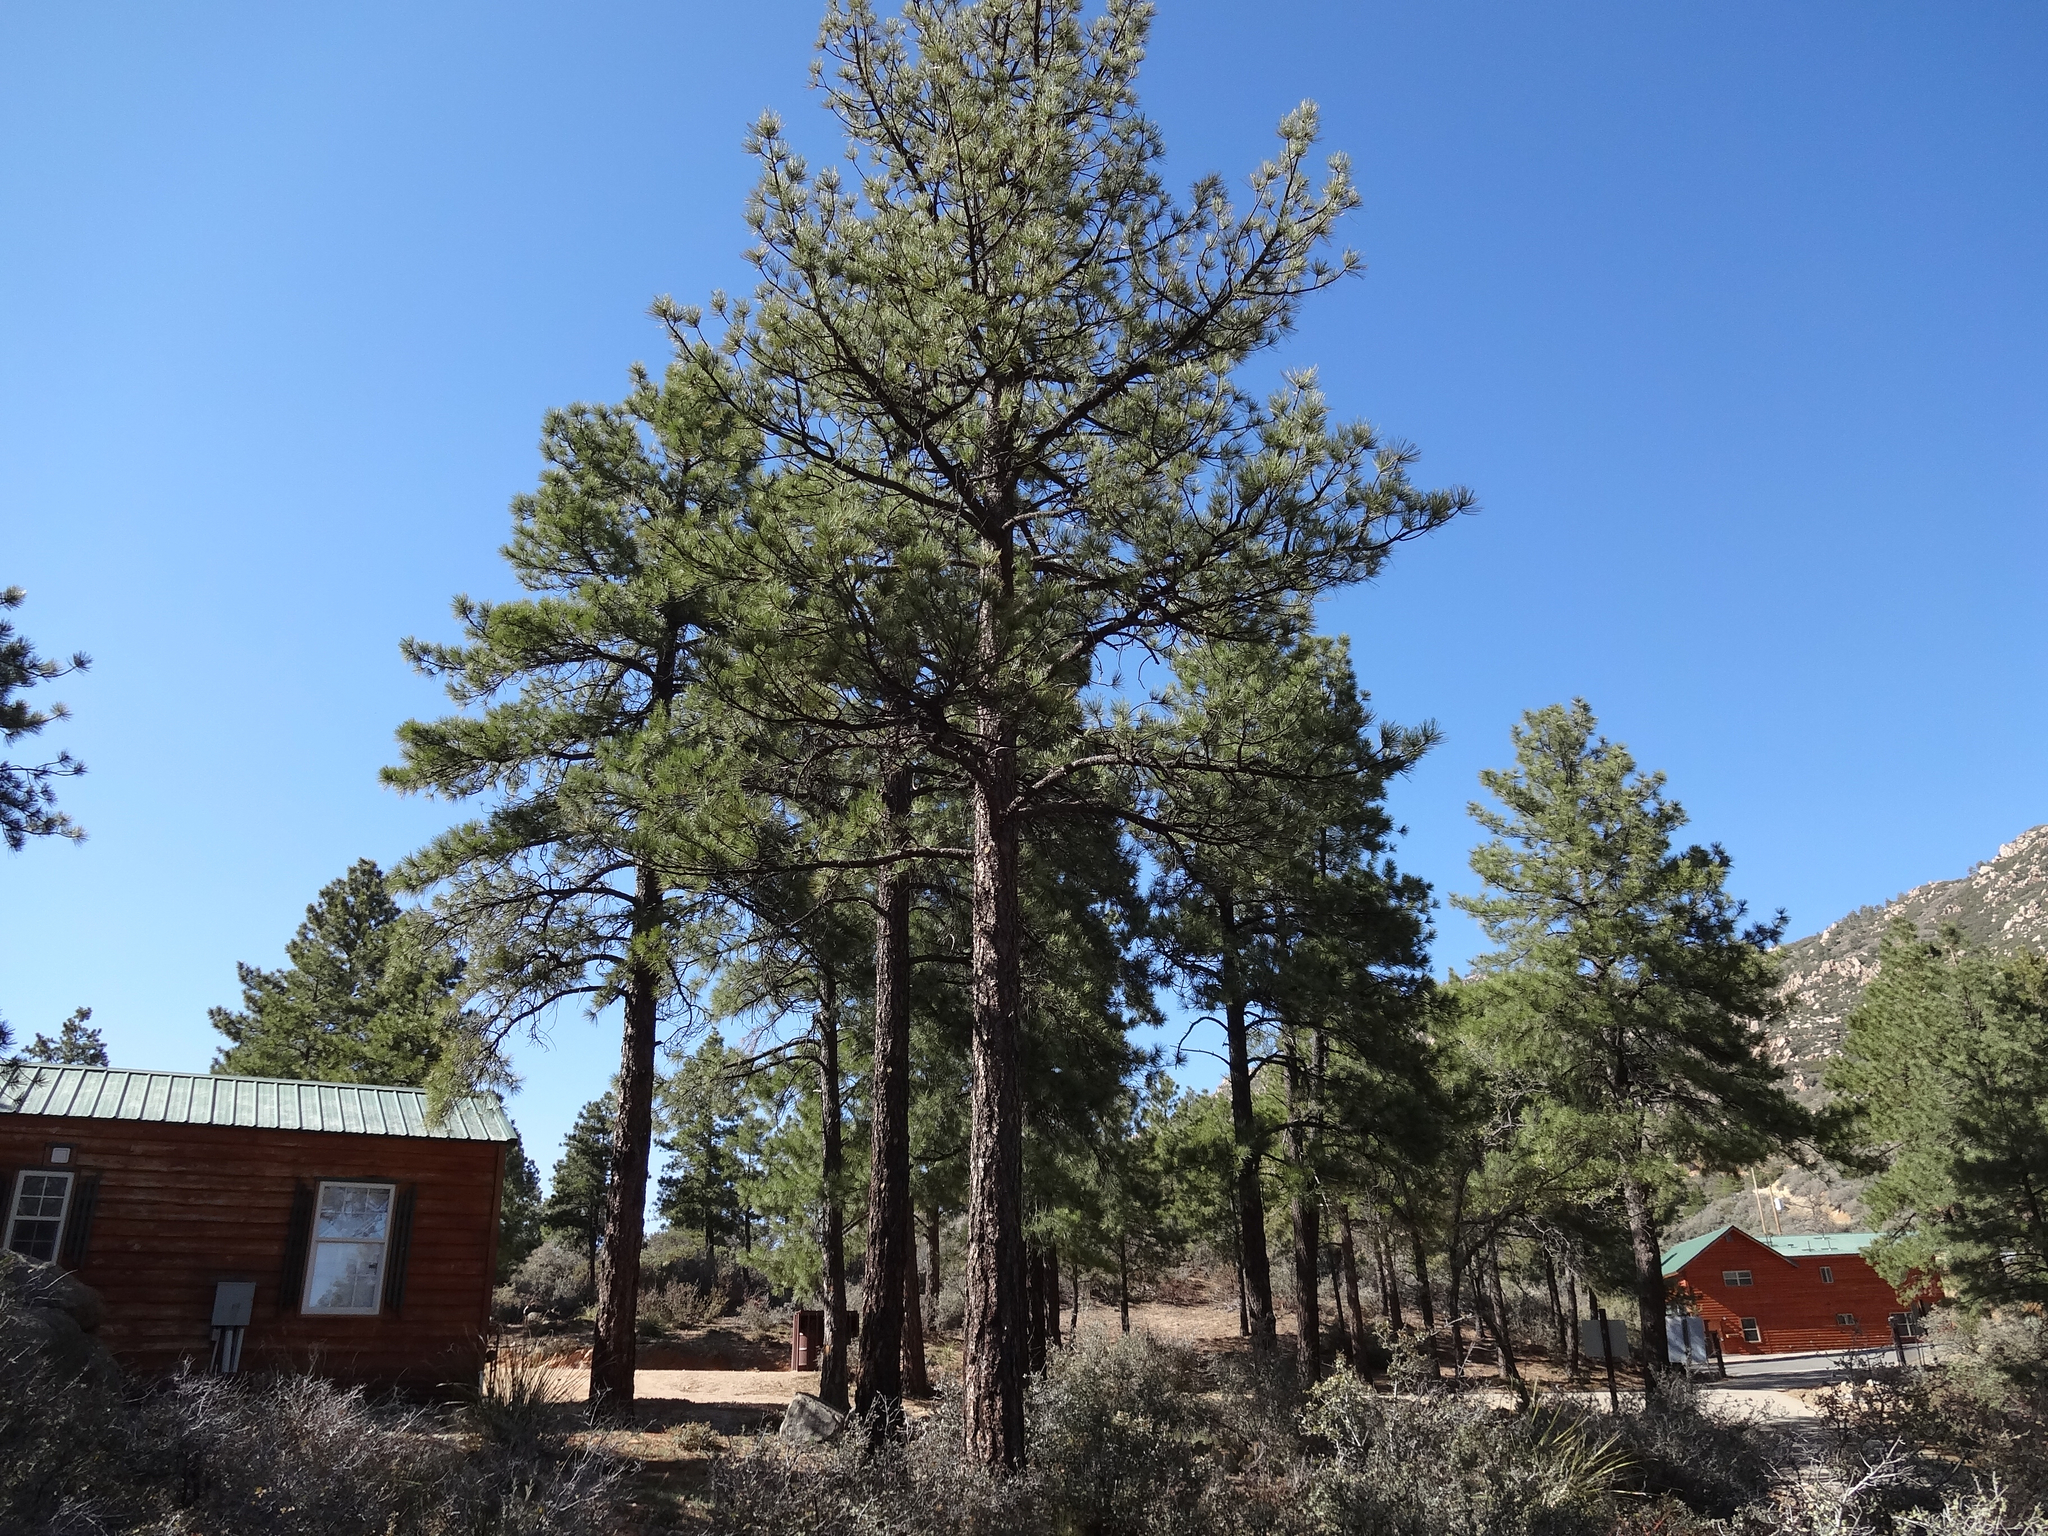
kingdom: Plantae
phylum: Tracheophyta
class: Pinopsida
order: Pinales
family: Pinaceae
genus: Pinus
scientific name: Pinus ponderosa
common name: Western yellow-pine
